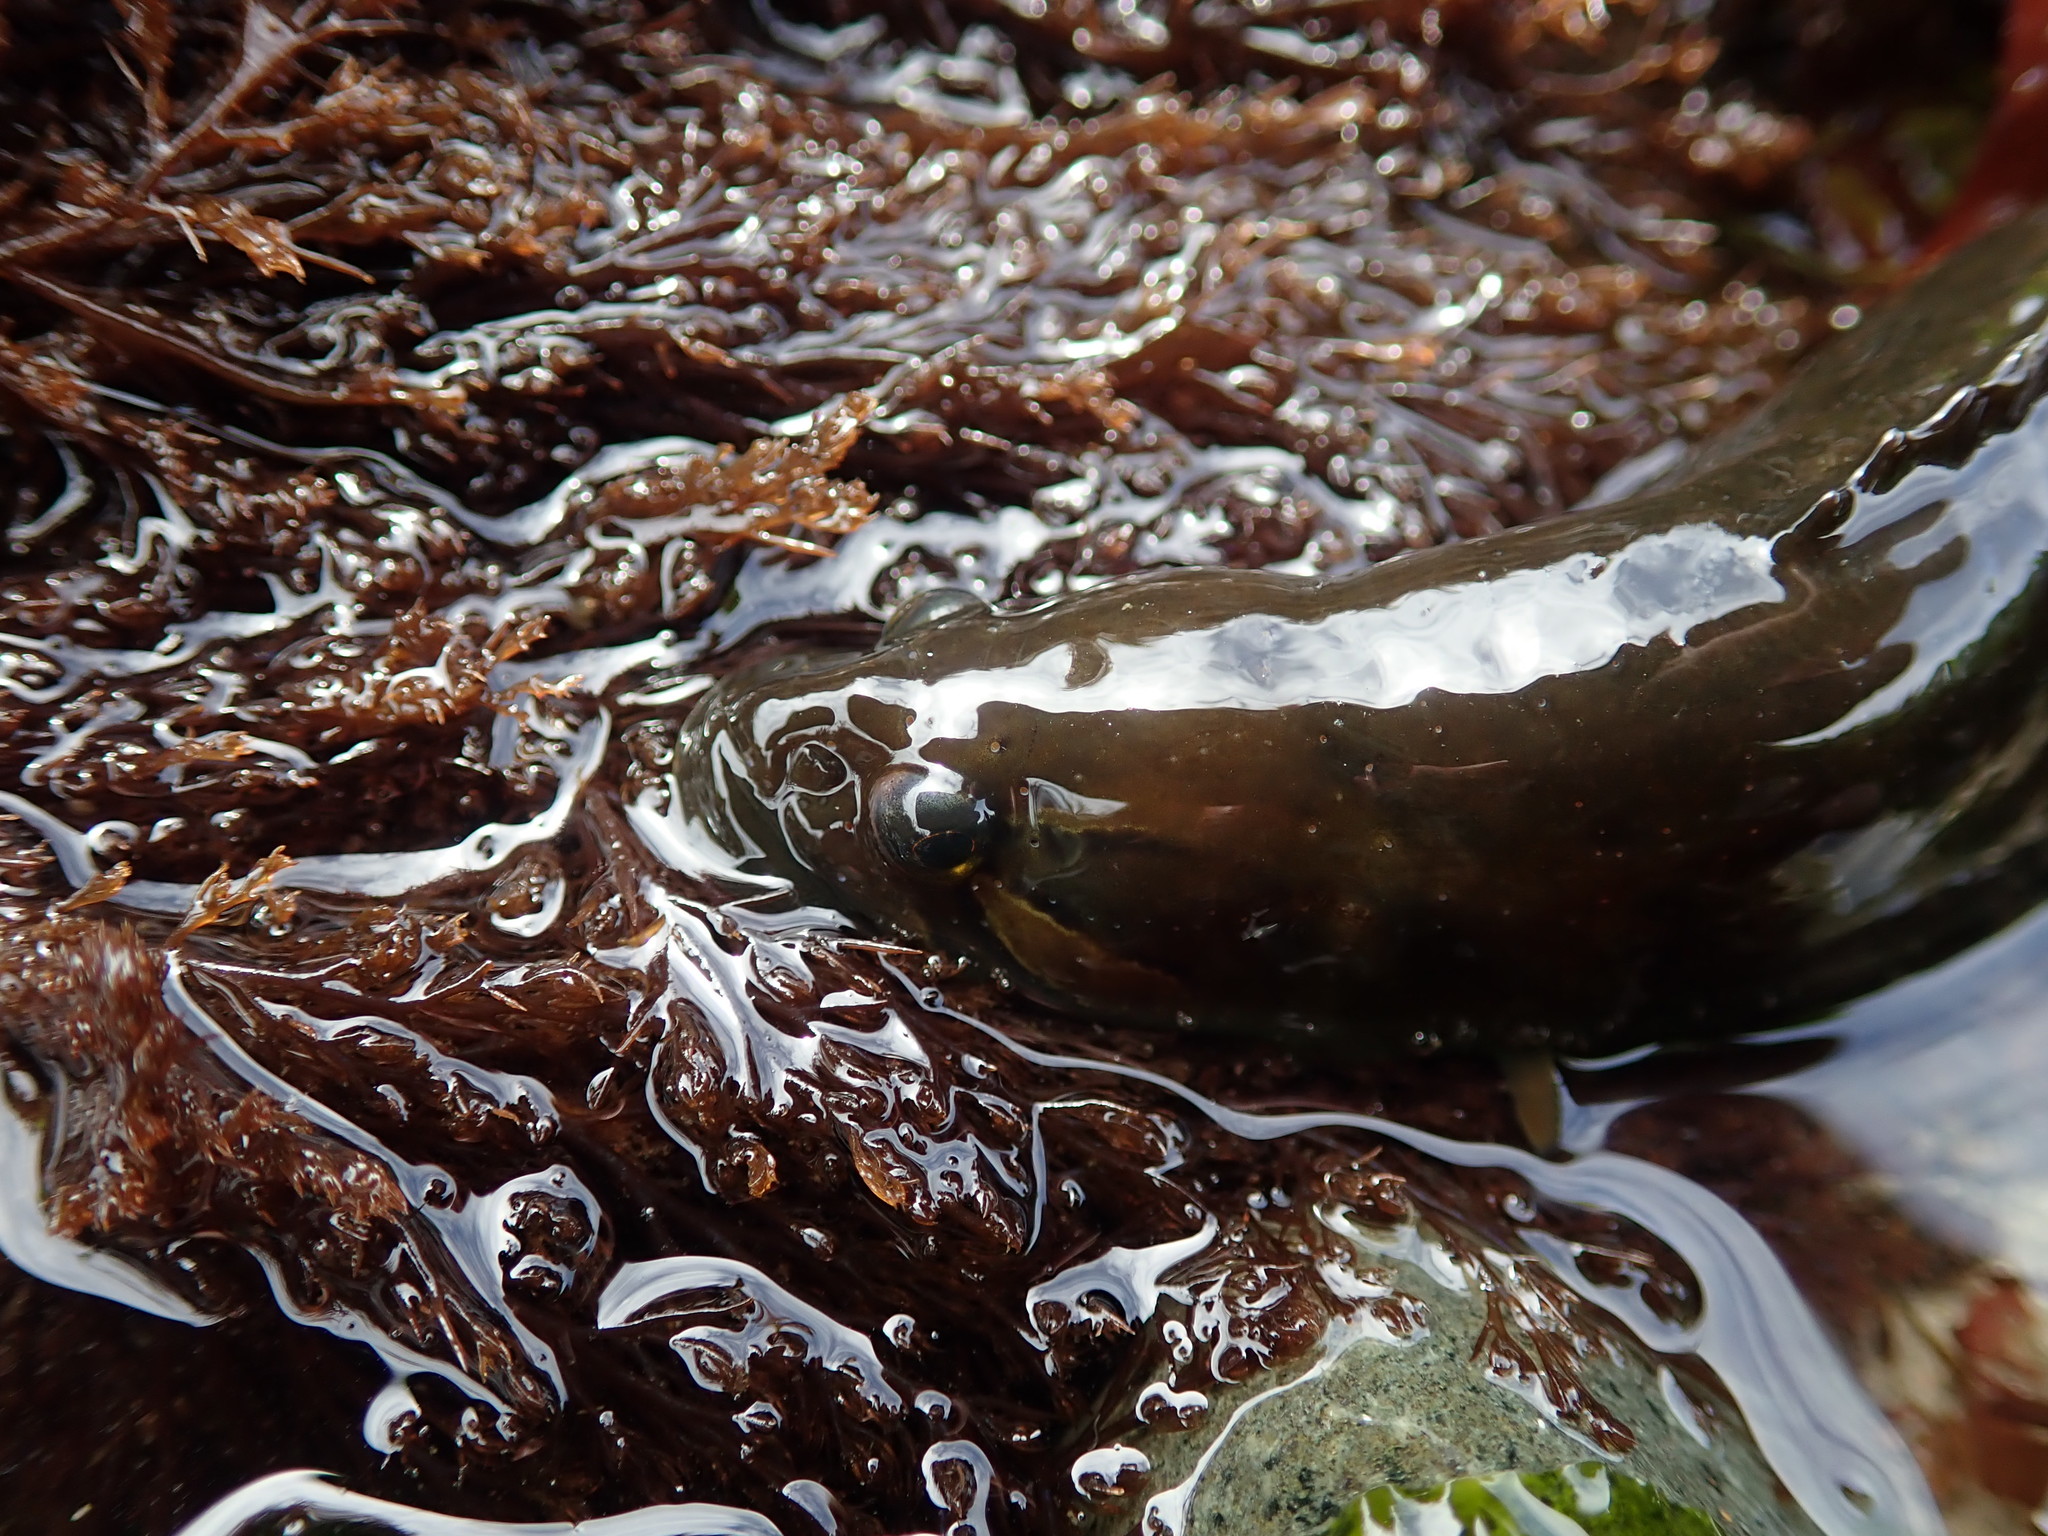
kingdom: Animalia
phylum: Chordata
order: Perciformes
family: Stichaeidae
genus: Xiphister
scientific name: Xiphister mucosus
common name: Rock prickleback
